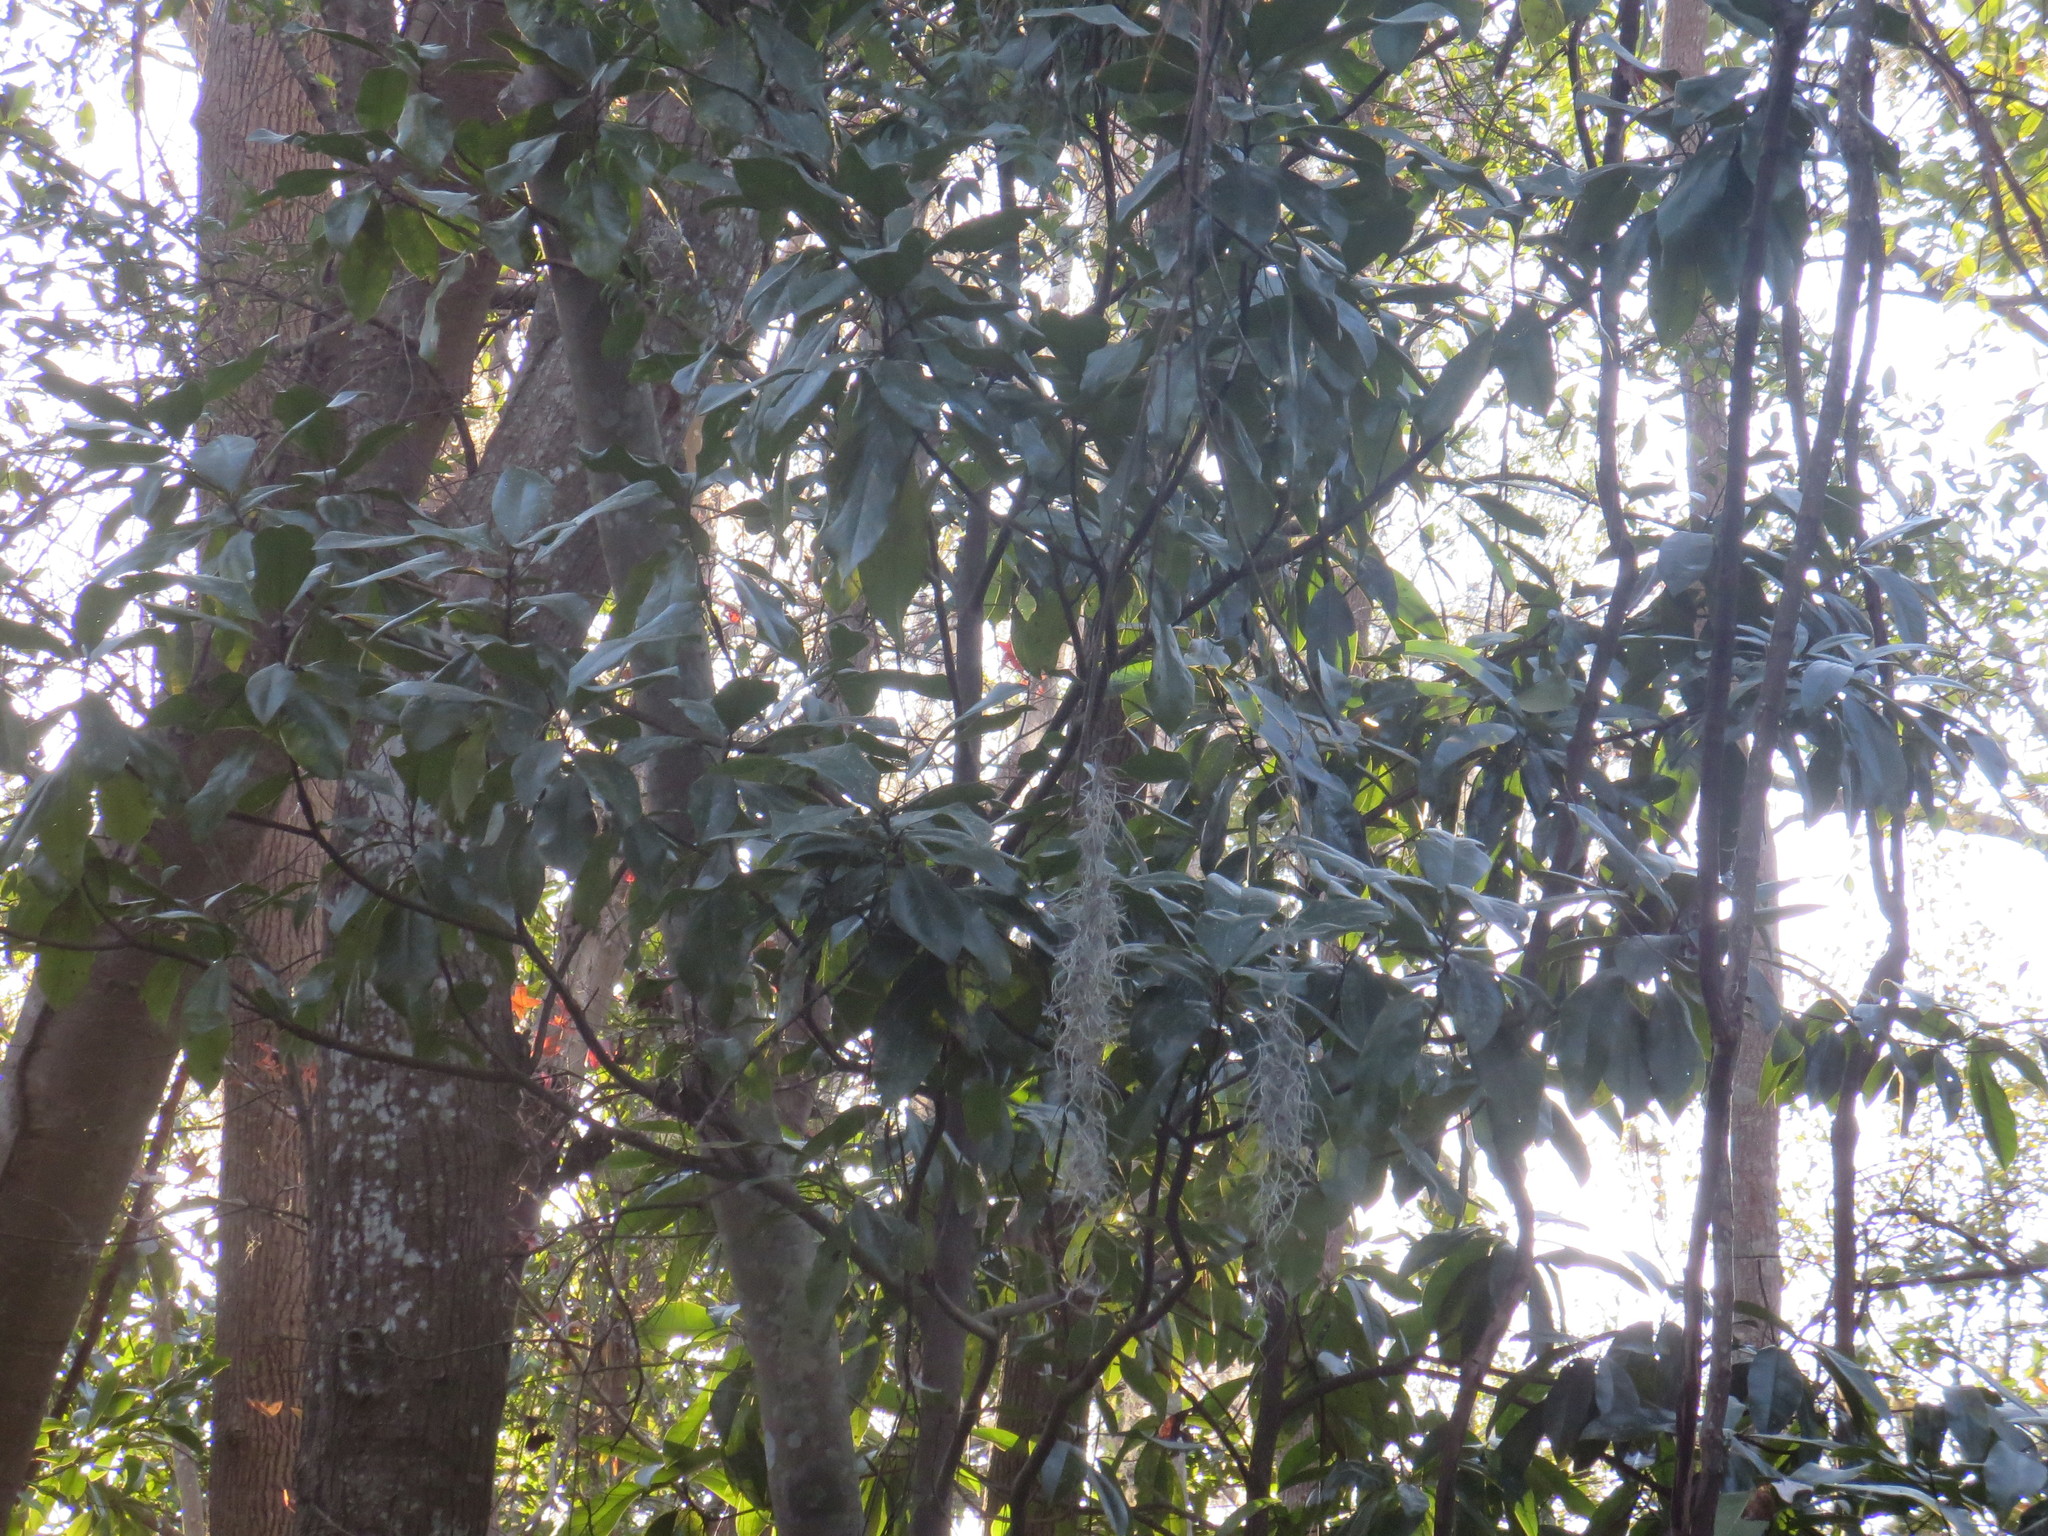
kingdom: Plantae
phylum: Tracheophyta
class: Magnoliopsida
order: Magnoliales
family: Magnoliaceae
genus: Magnolia
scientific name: Magnolia grandiflora
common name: Southern magnolia
